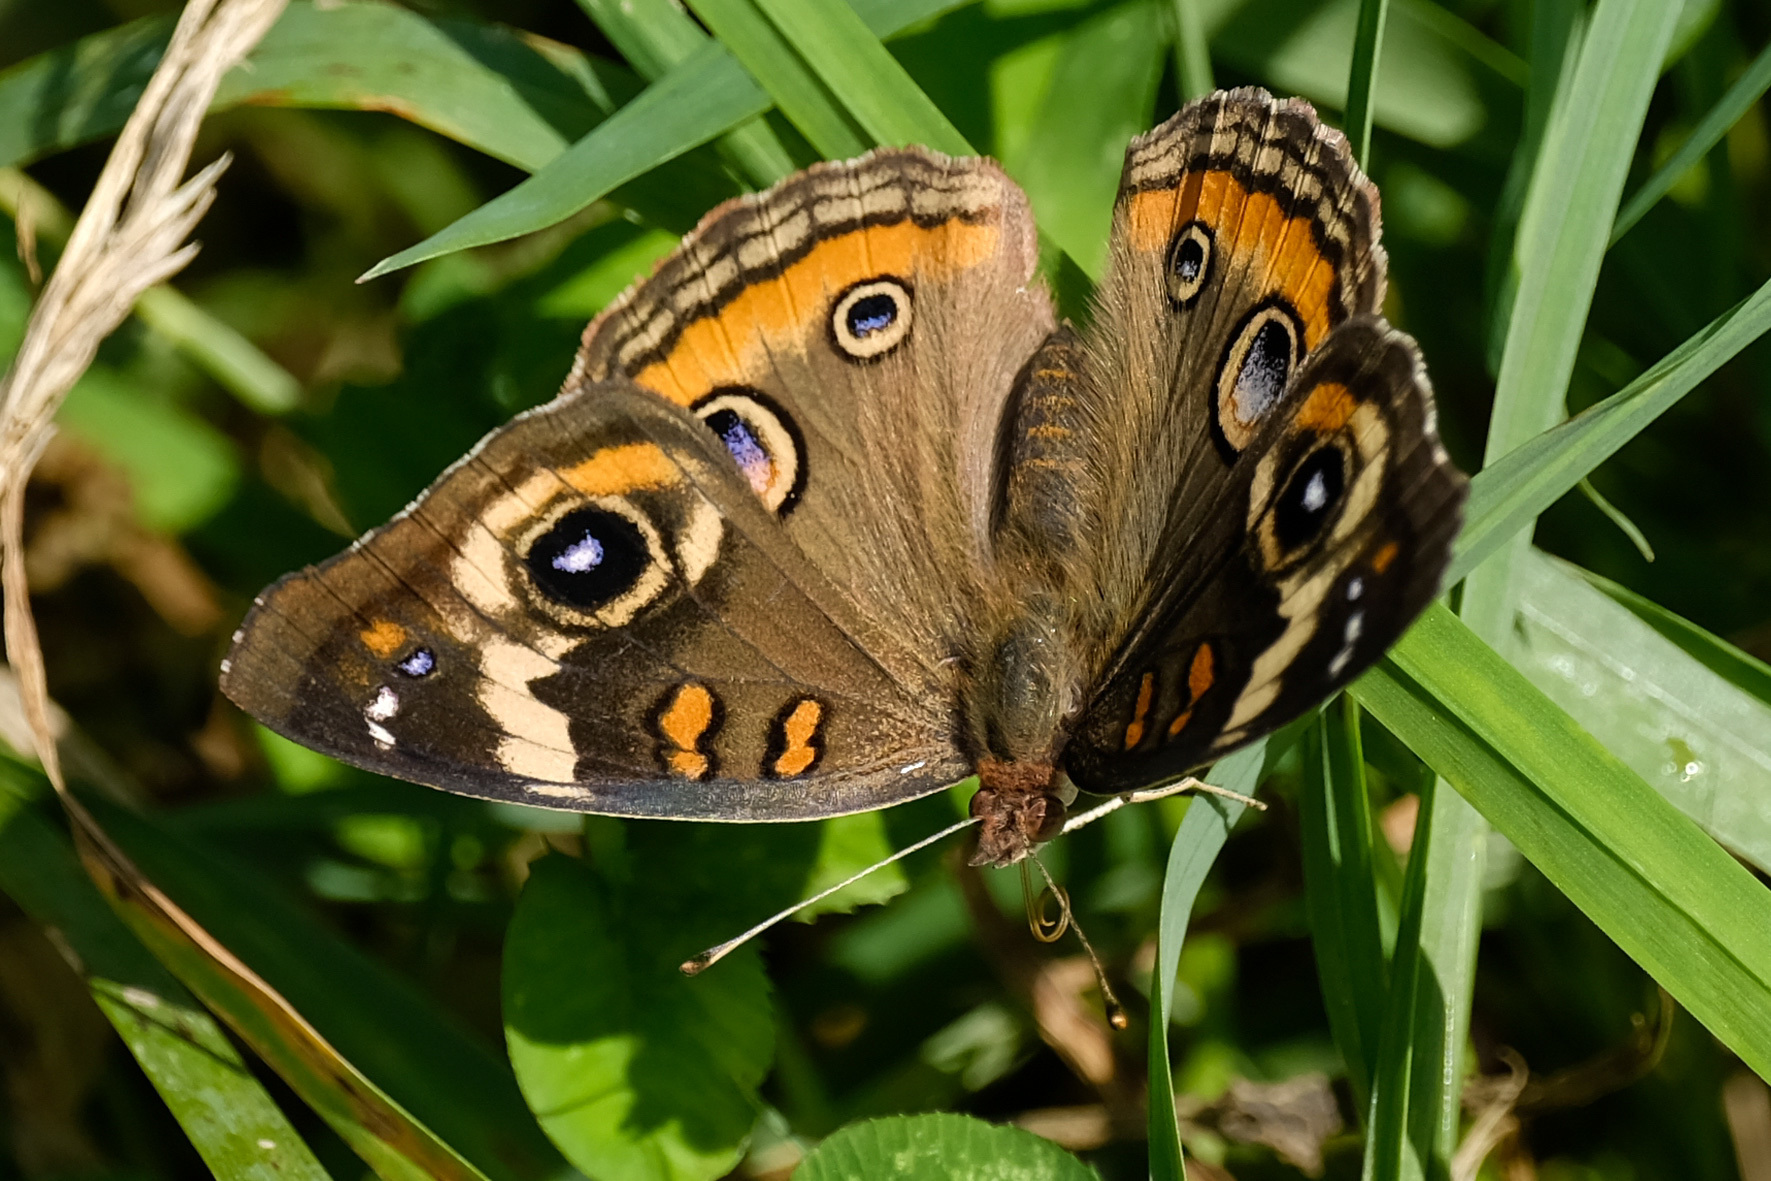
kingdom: Animalia
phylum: Arthropoda
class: Insecta
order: Lepidoptera
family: Nymphalidae
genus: Junonia
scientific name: Junonia coenia
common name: Common buckeye
